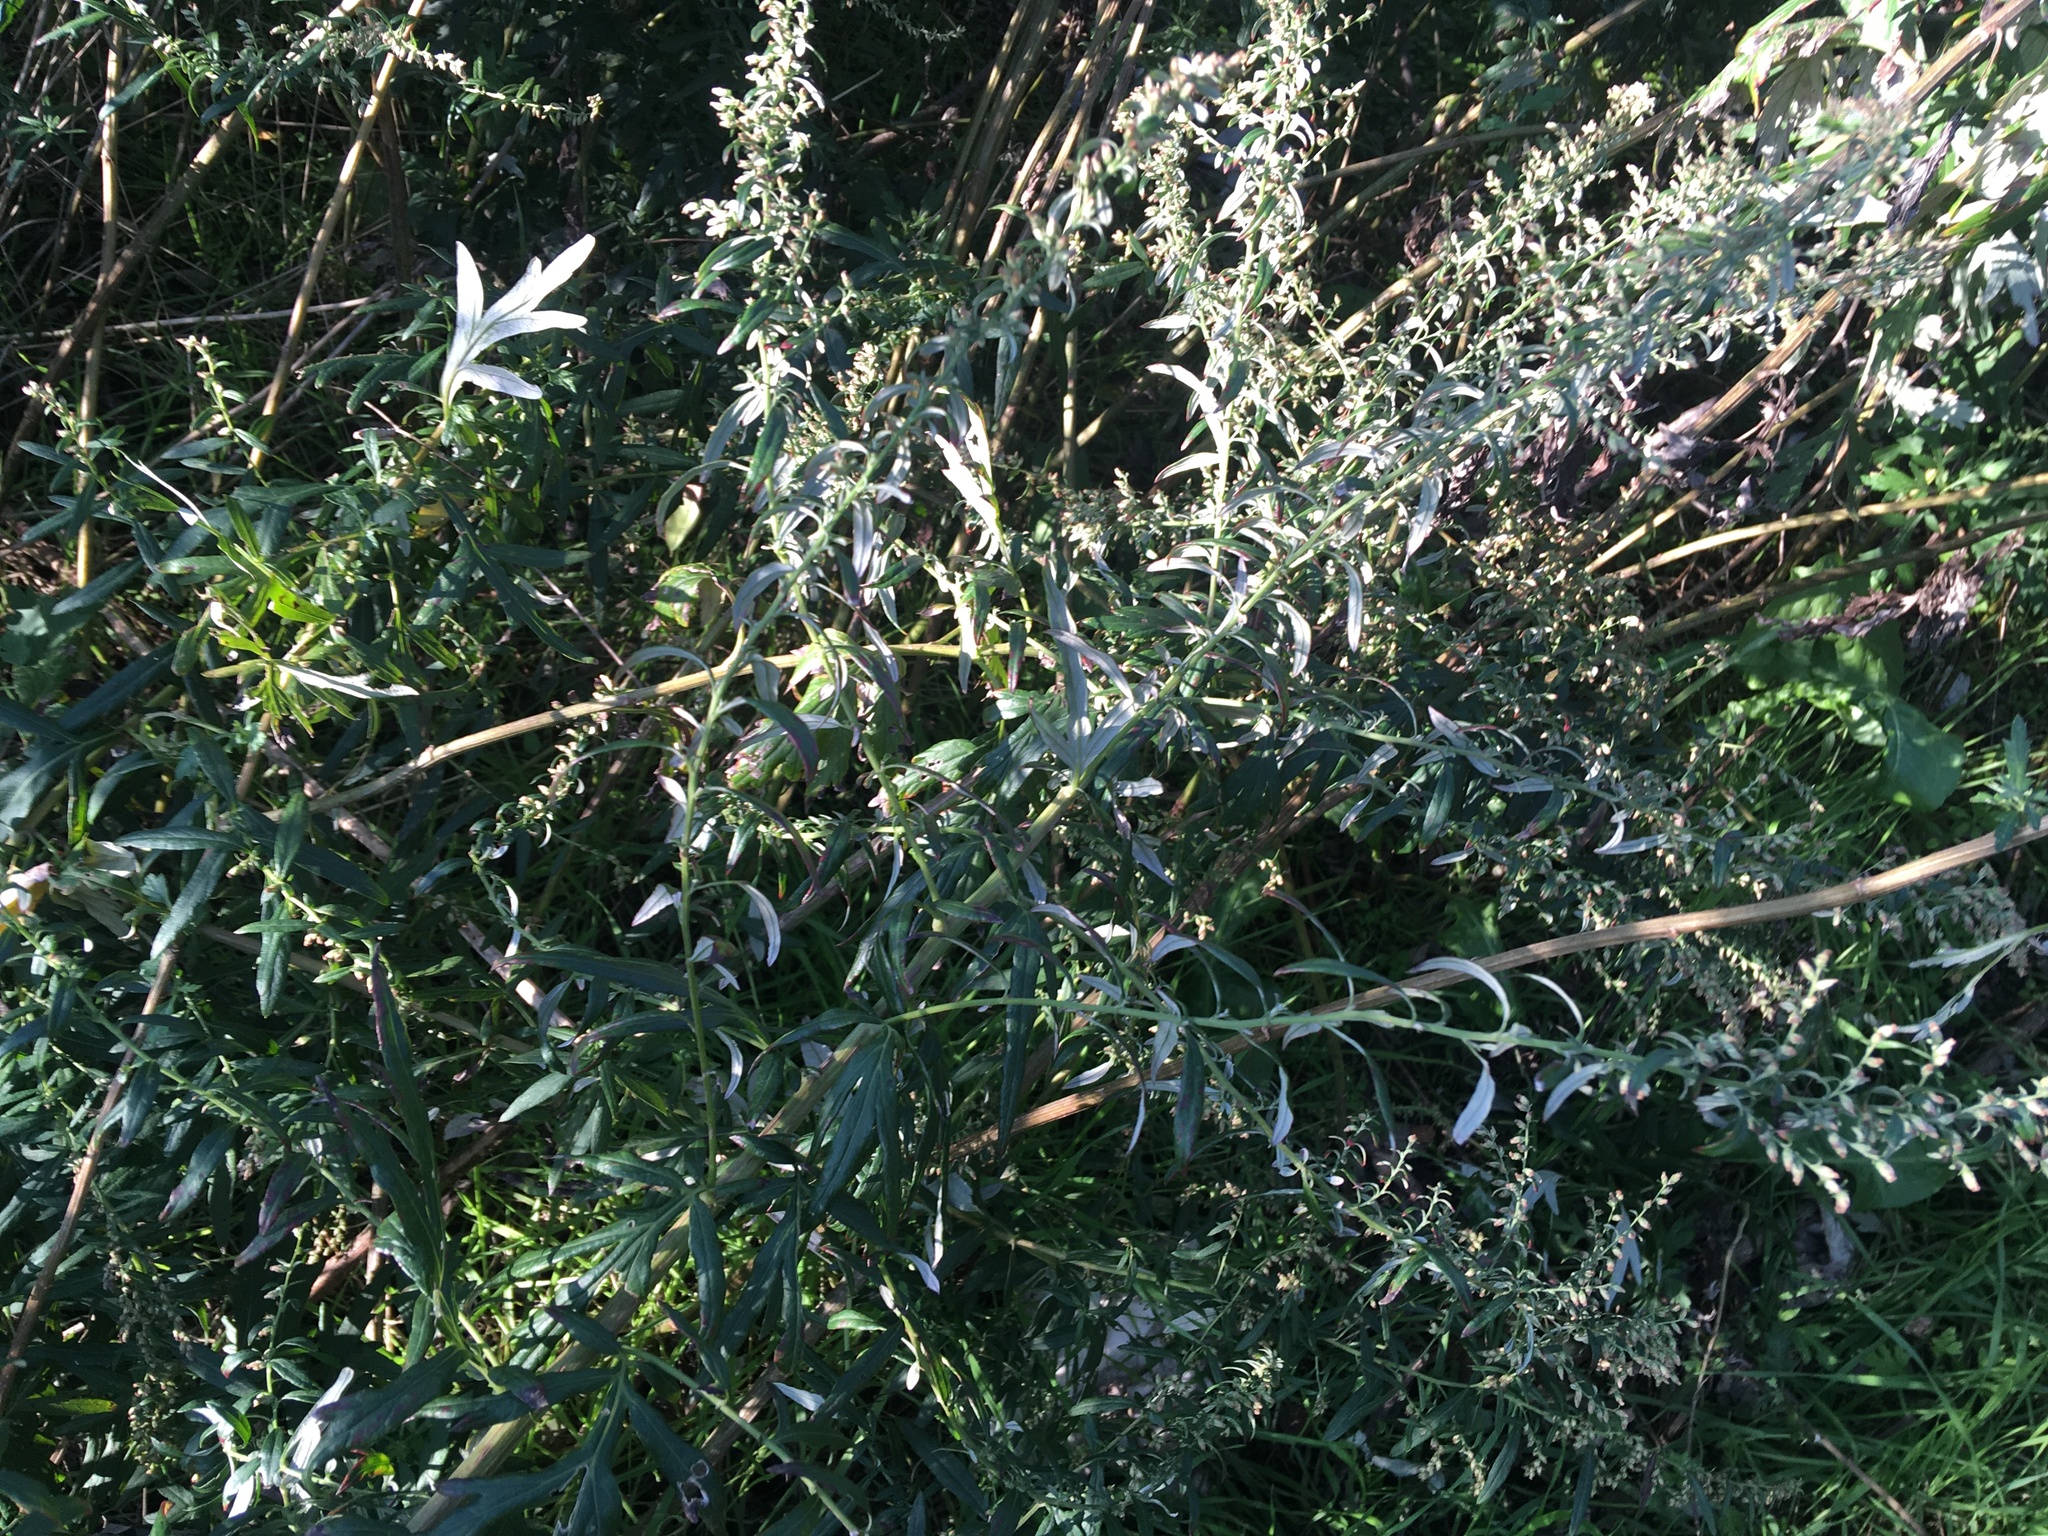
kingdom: Plantae
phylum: Tracheophyta
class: Magnoliopsida
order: Asterales
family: Asteraceae
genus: Artemisia
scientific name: Artemisia vulgaris
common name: Mugwort
